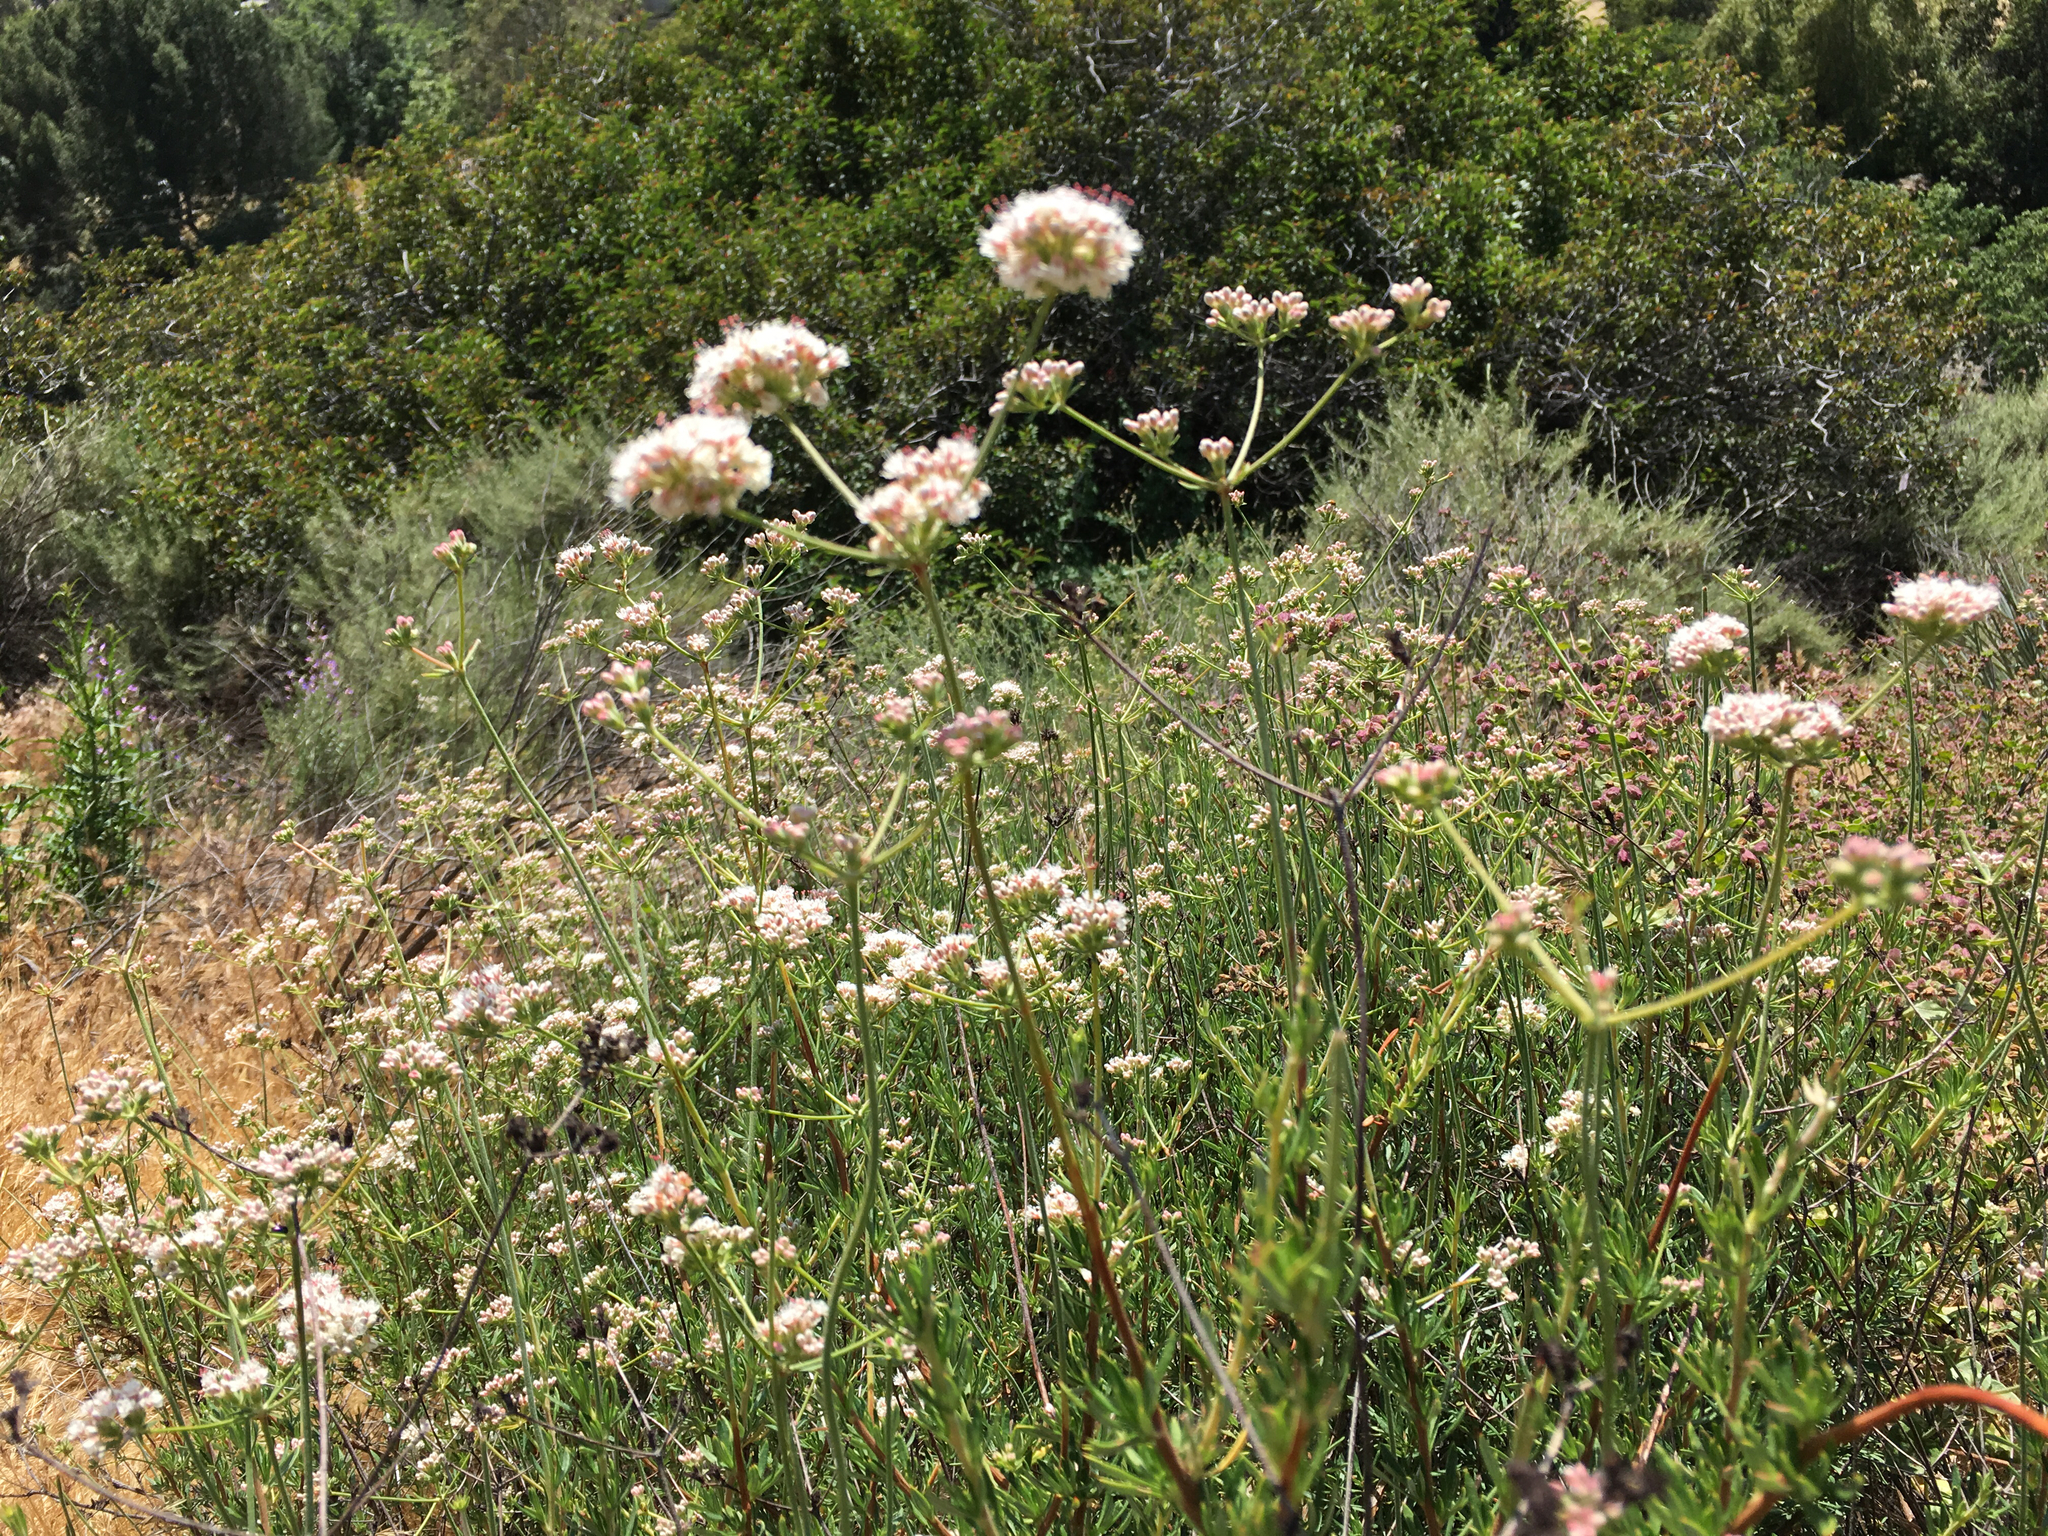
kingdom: Plantae
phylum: Tracheophyta
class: Magnoliopsida
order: Caryophyllales
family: Polygonaceae
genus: Eriogonum
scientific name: Eriogonum fasciculatum
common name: California wild buckwheat
